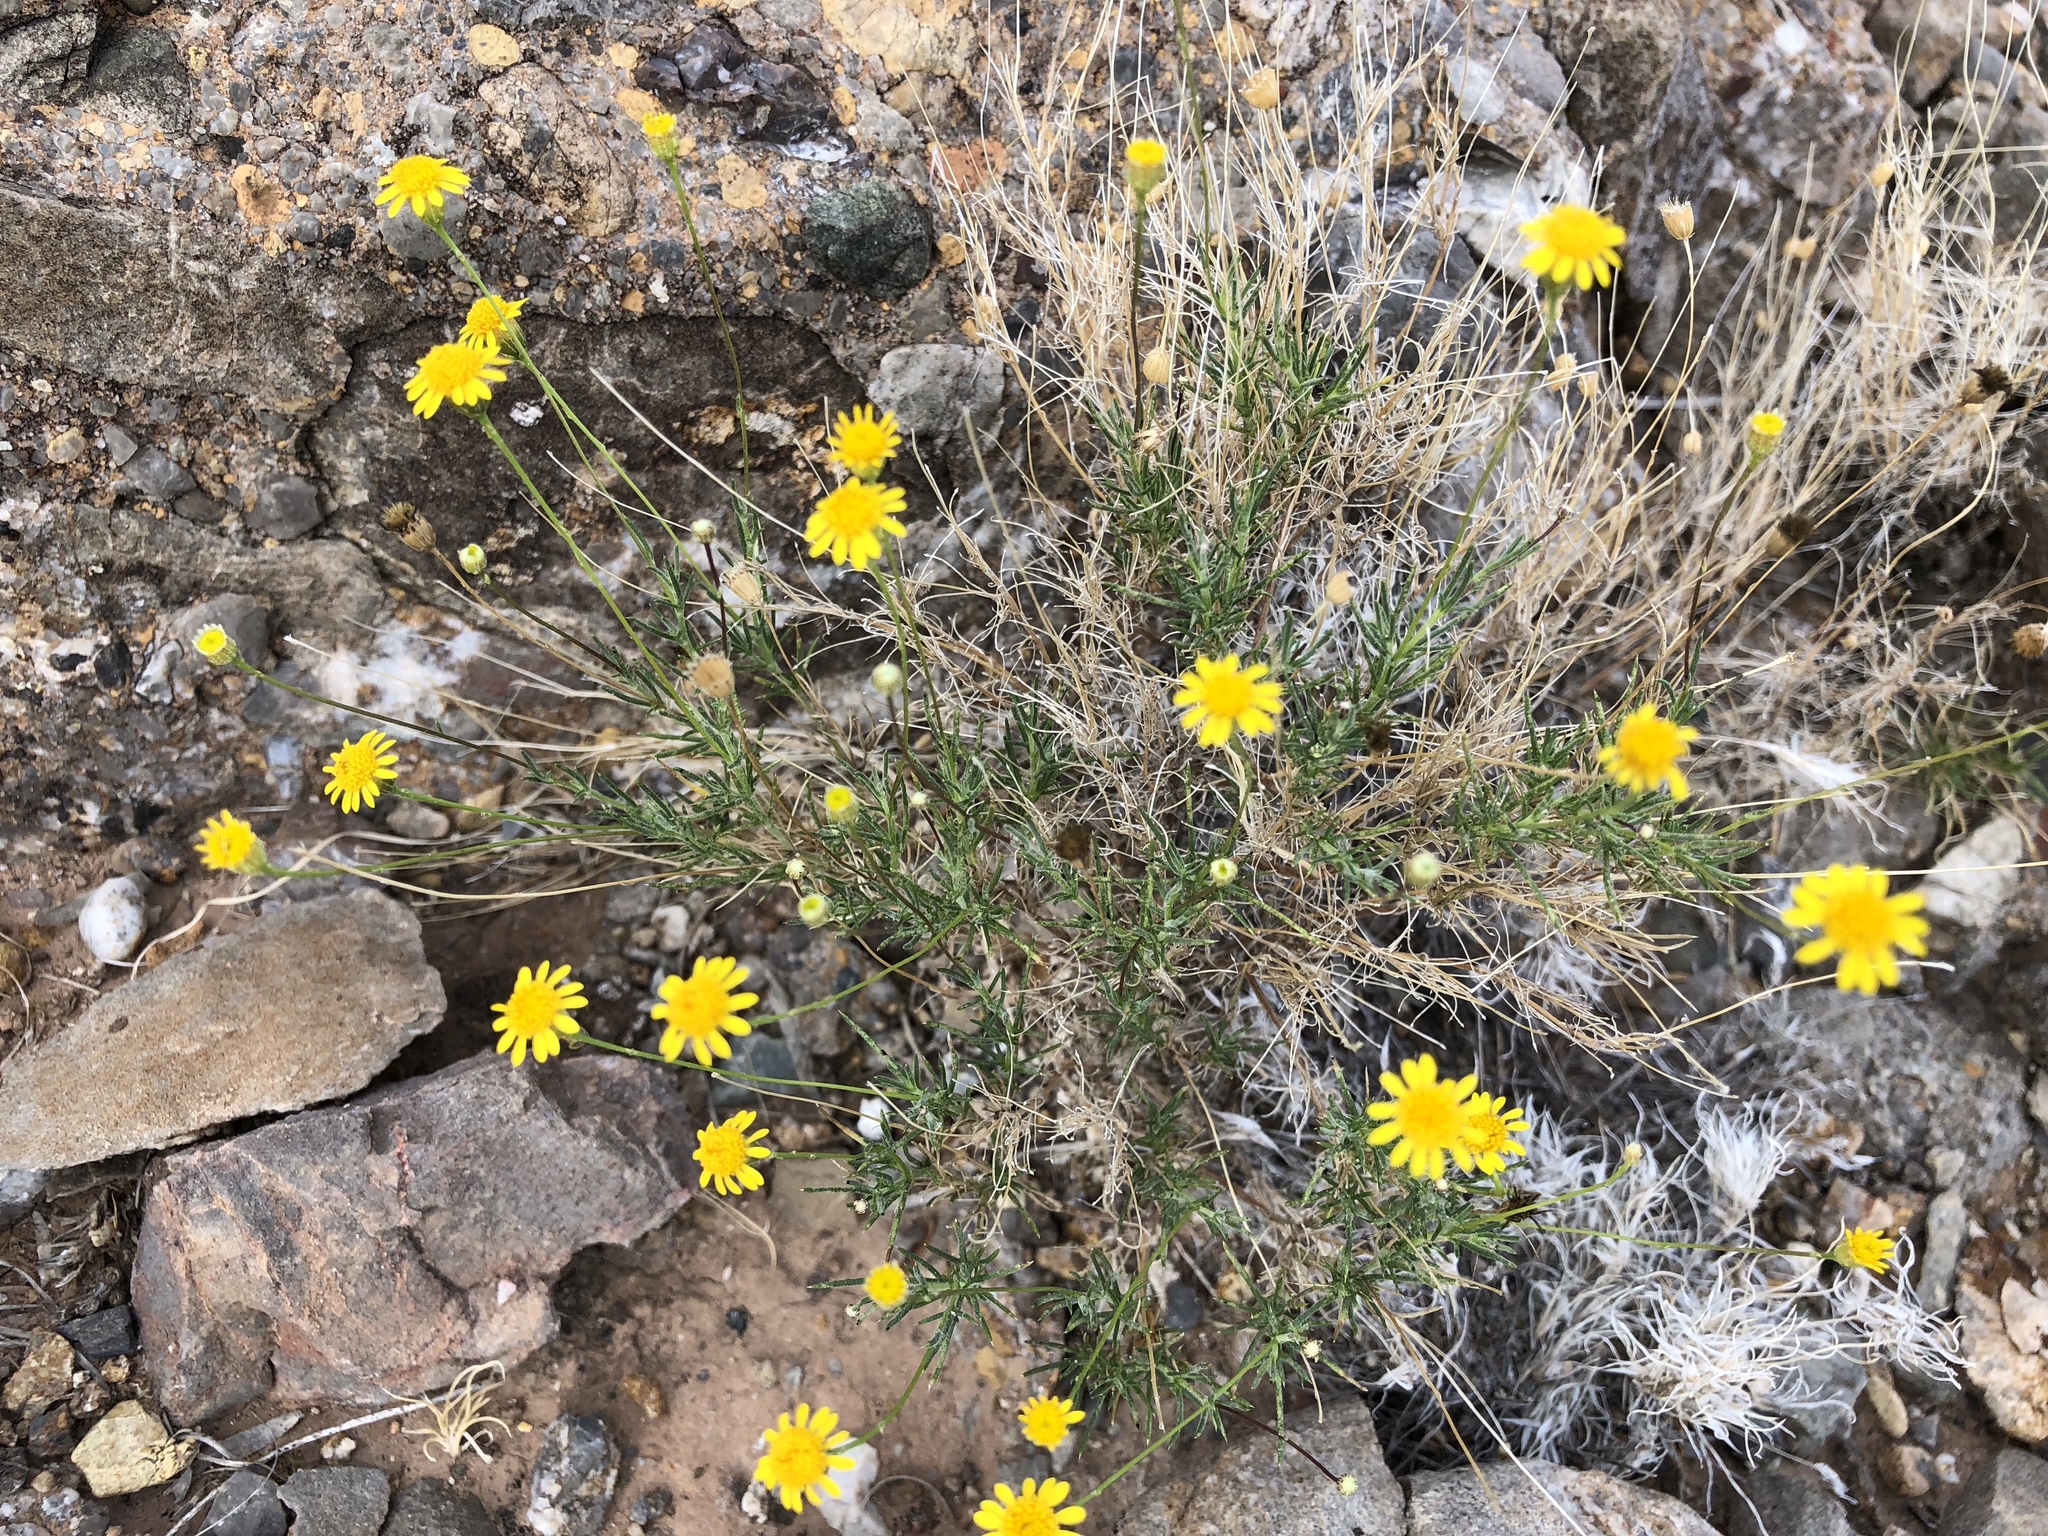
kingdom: Plantae
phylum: Tracheophyta
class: Magnoliopsida
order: Asterales
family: Asteraceae
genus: Thymophylla
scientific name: Thymophylla pentachaeta
